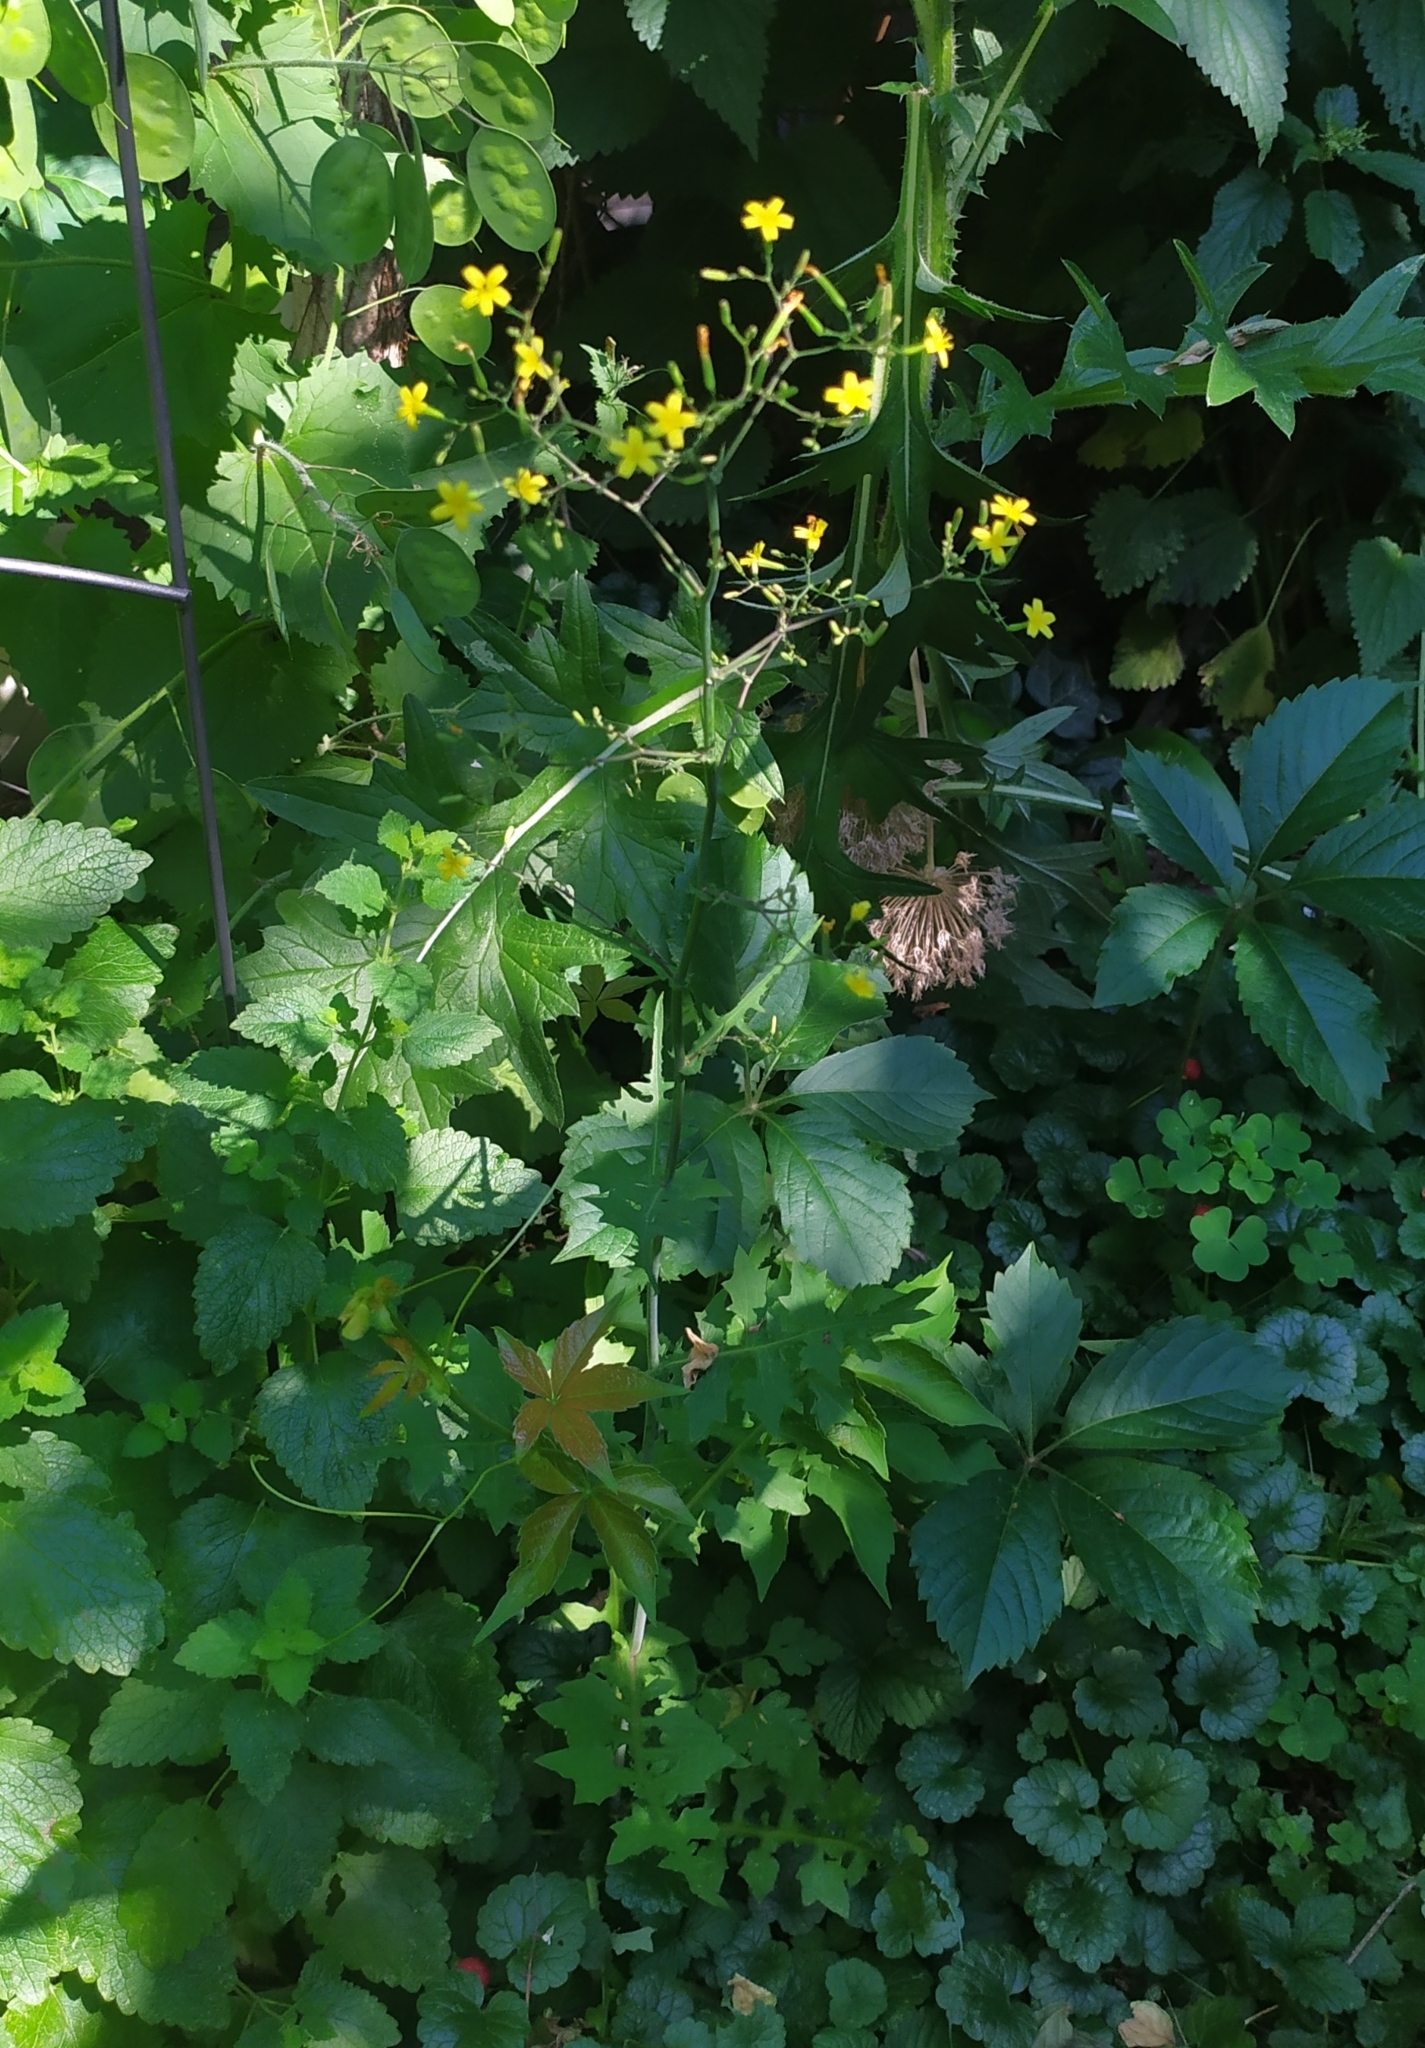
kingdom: Plantae
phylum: Tracheophyta
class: Magnoliopsida
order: Asterales
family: Asteraceae
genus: Mycelis
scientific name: Mycelis muralis
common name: Wall lettuce
